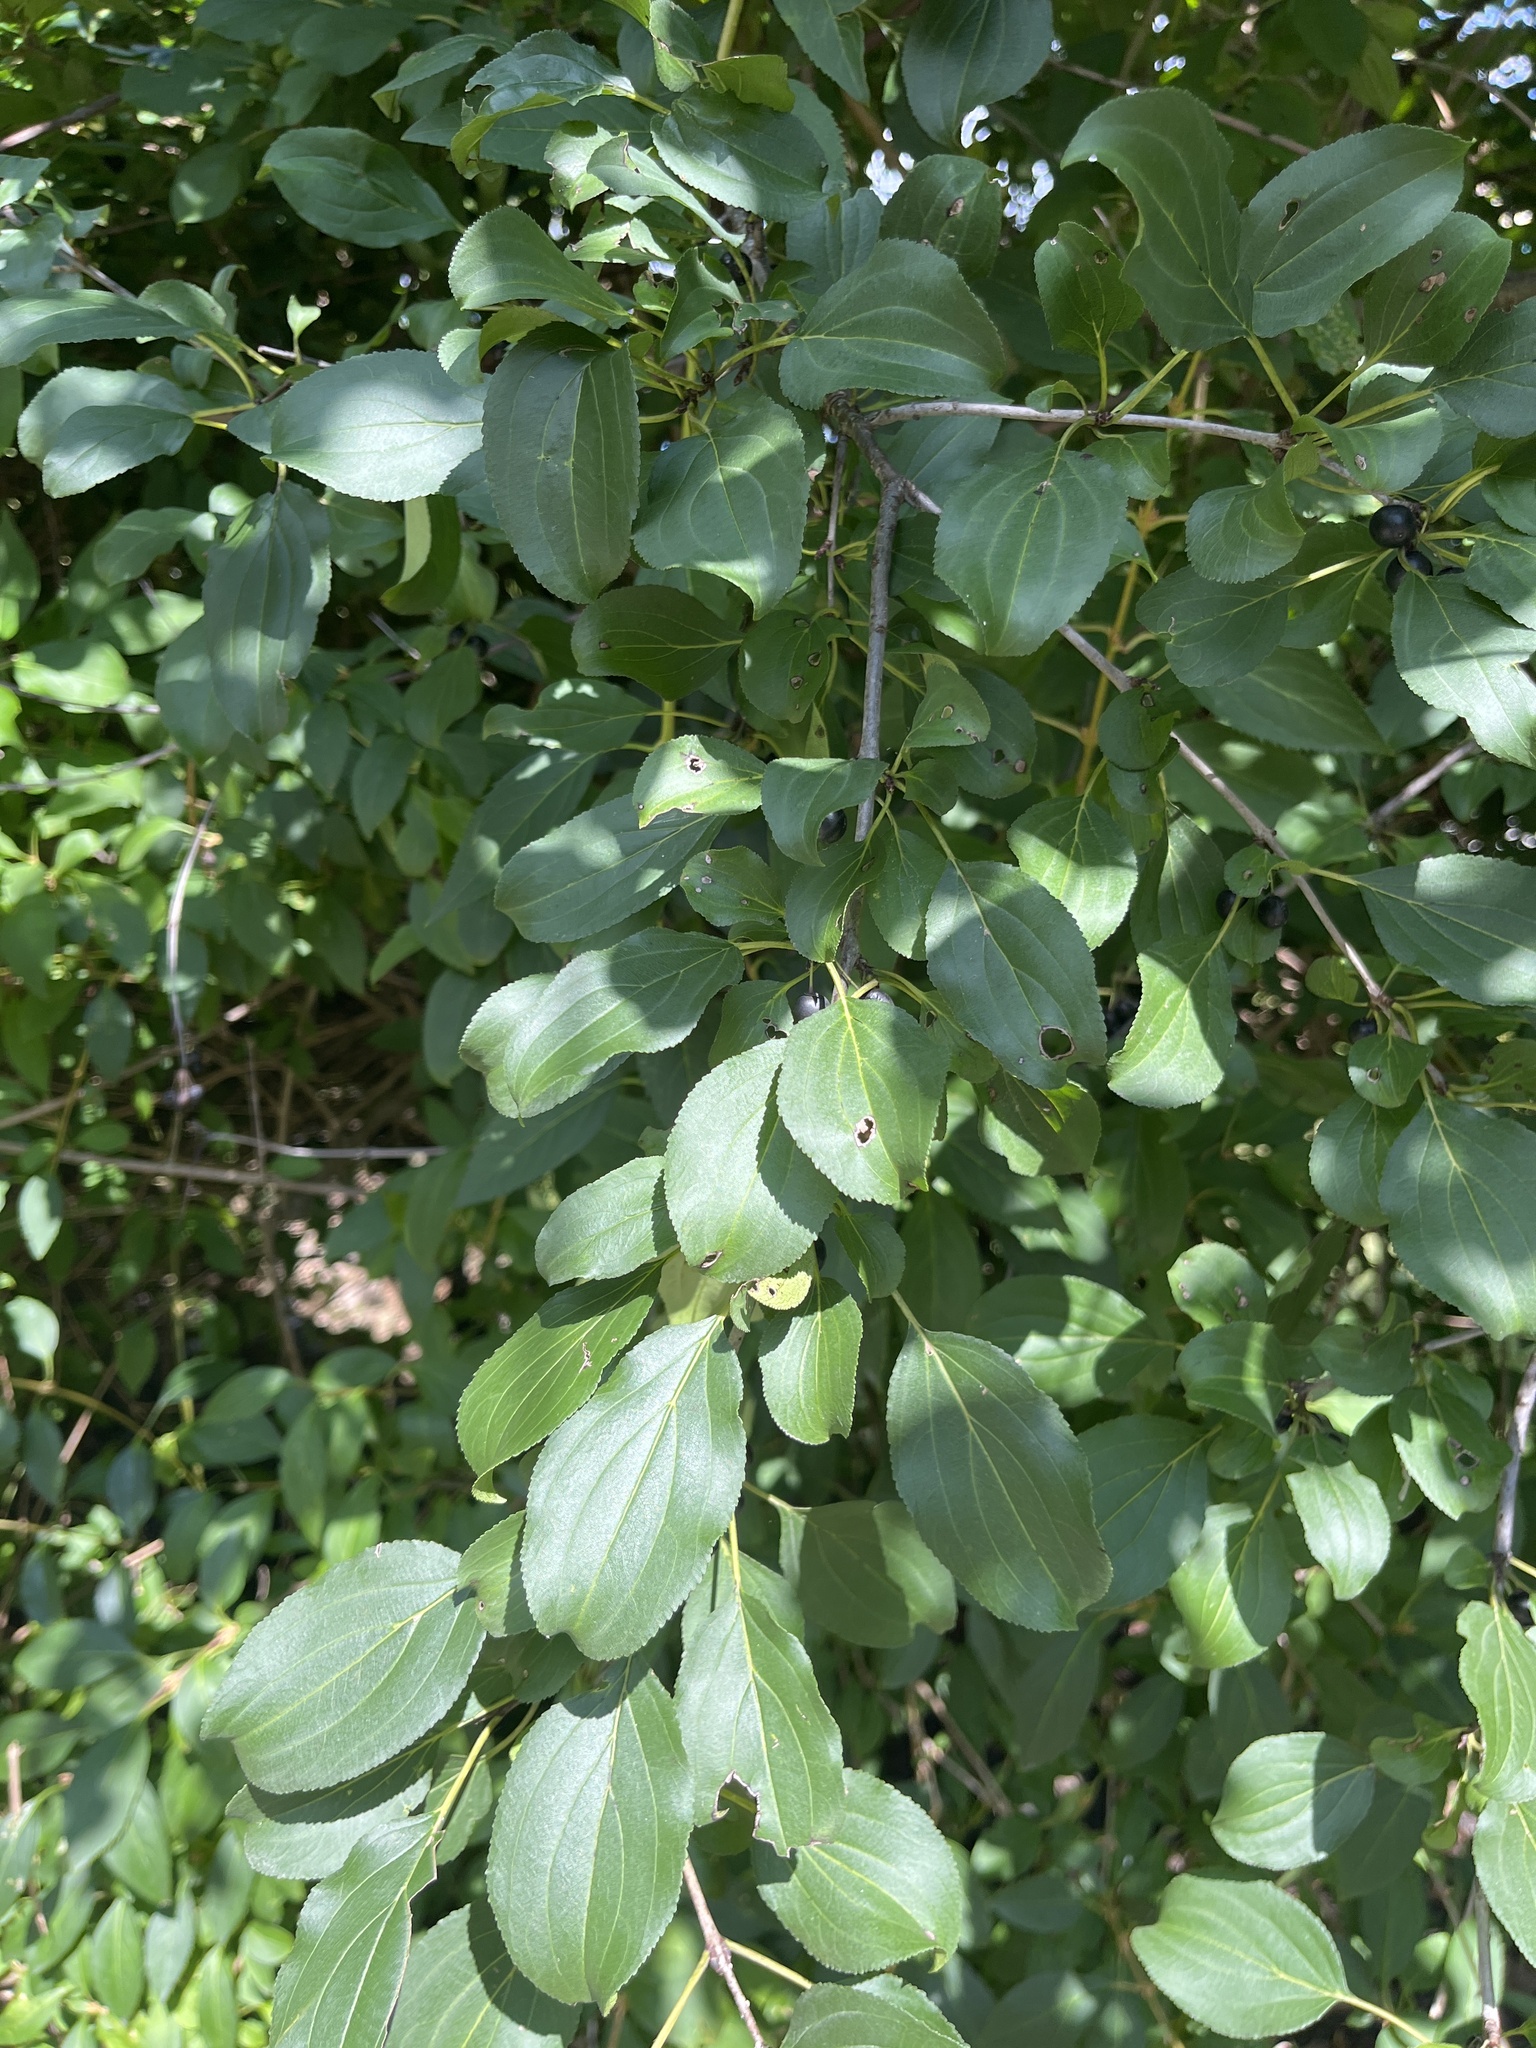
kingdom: Plantae
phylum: Tracheophyta
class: Magnoliopsida
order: Rosales
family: Rhamnaceae
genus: Rhamnus
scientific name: Rhamnus cathartica
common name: Common buckthorn
